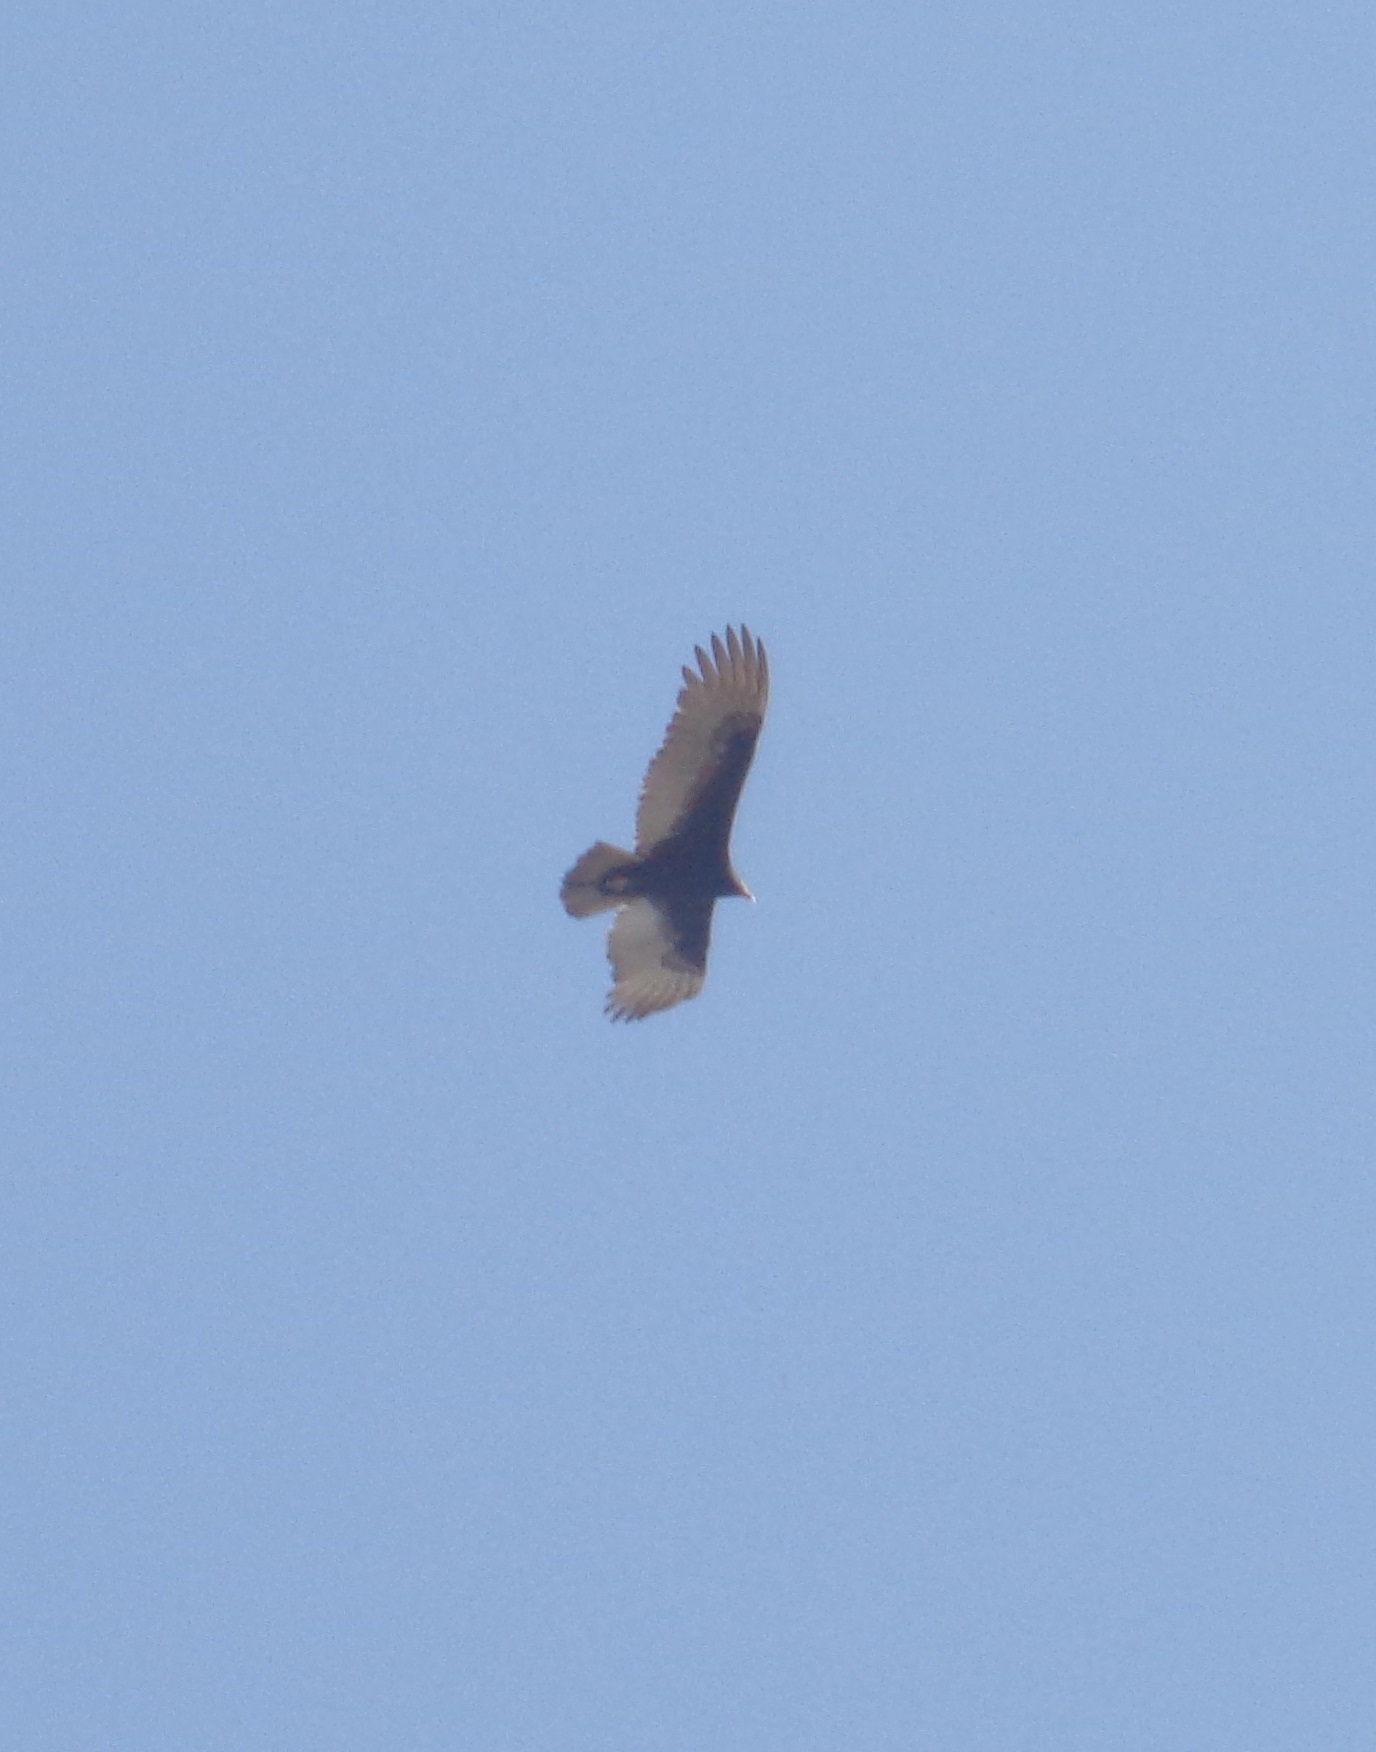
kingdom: Animalia
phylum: Chordata
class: Aves
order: Accipitriformes
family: Cathartidae
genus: Cathartes
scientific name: Cathartes aura
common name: Turkey vulture
